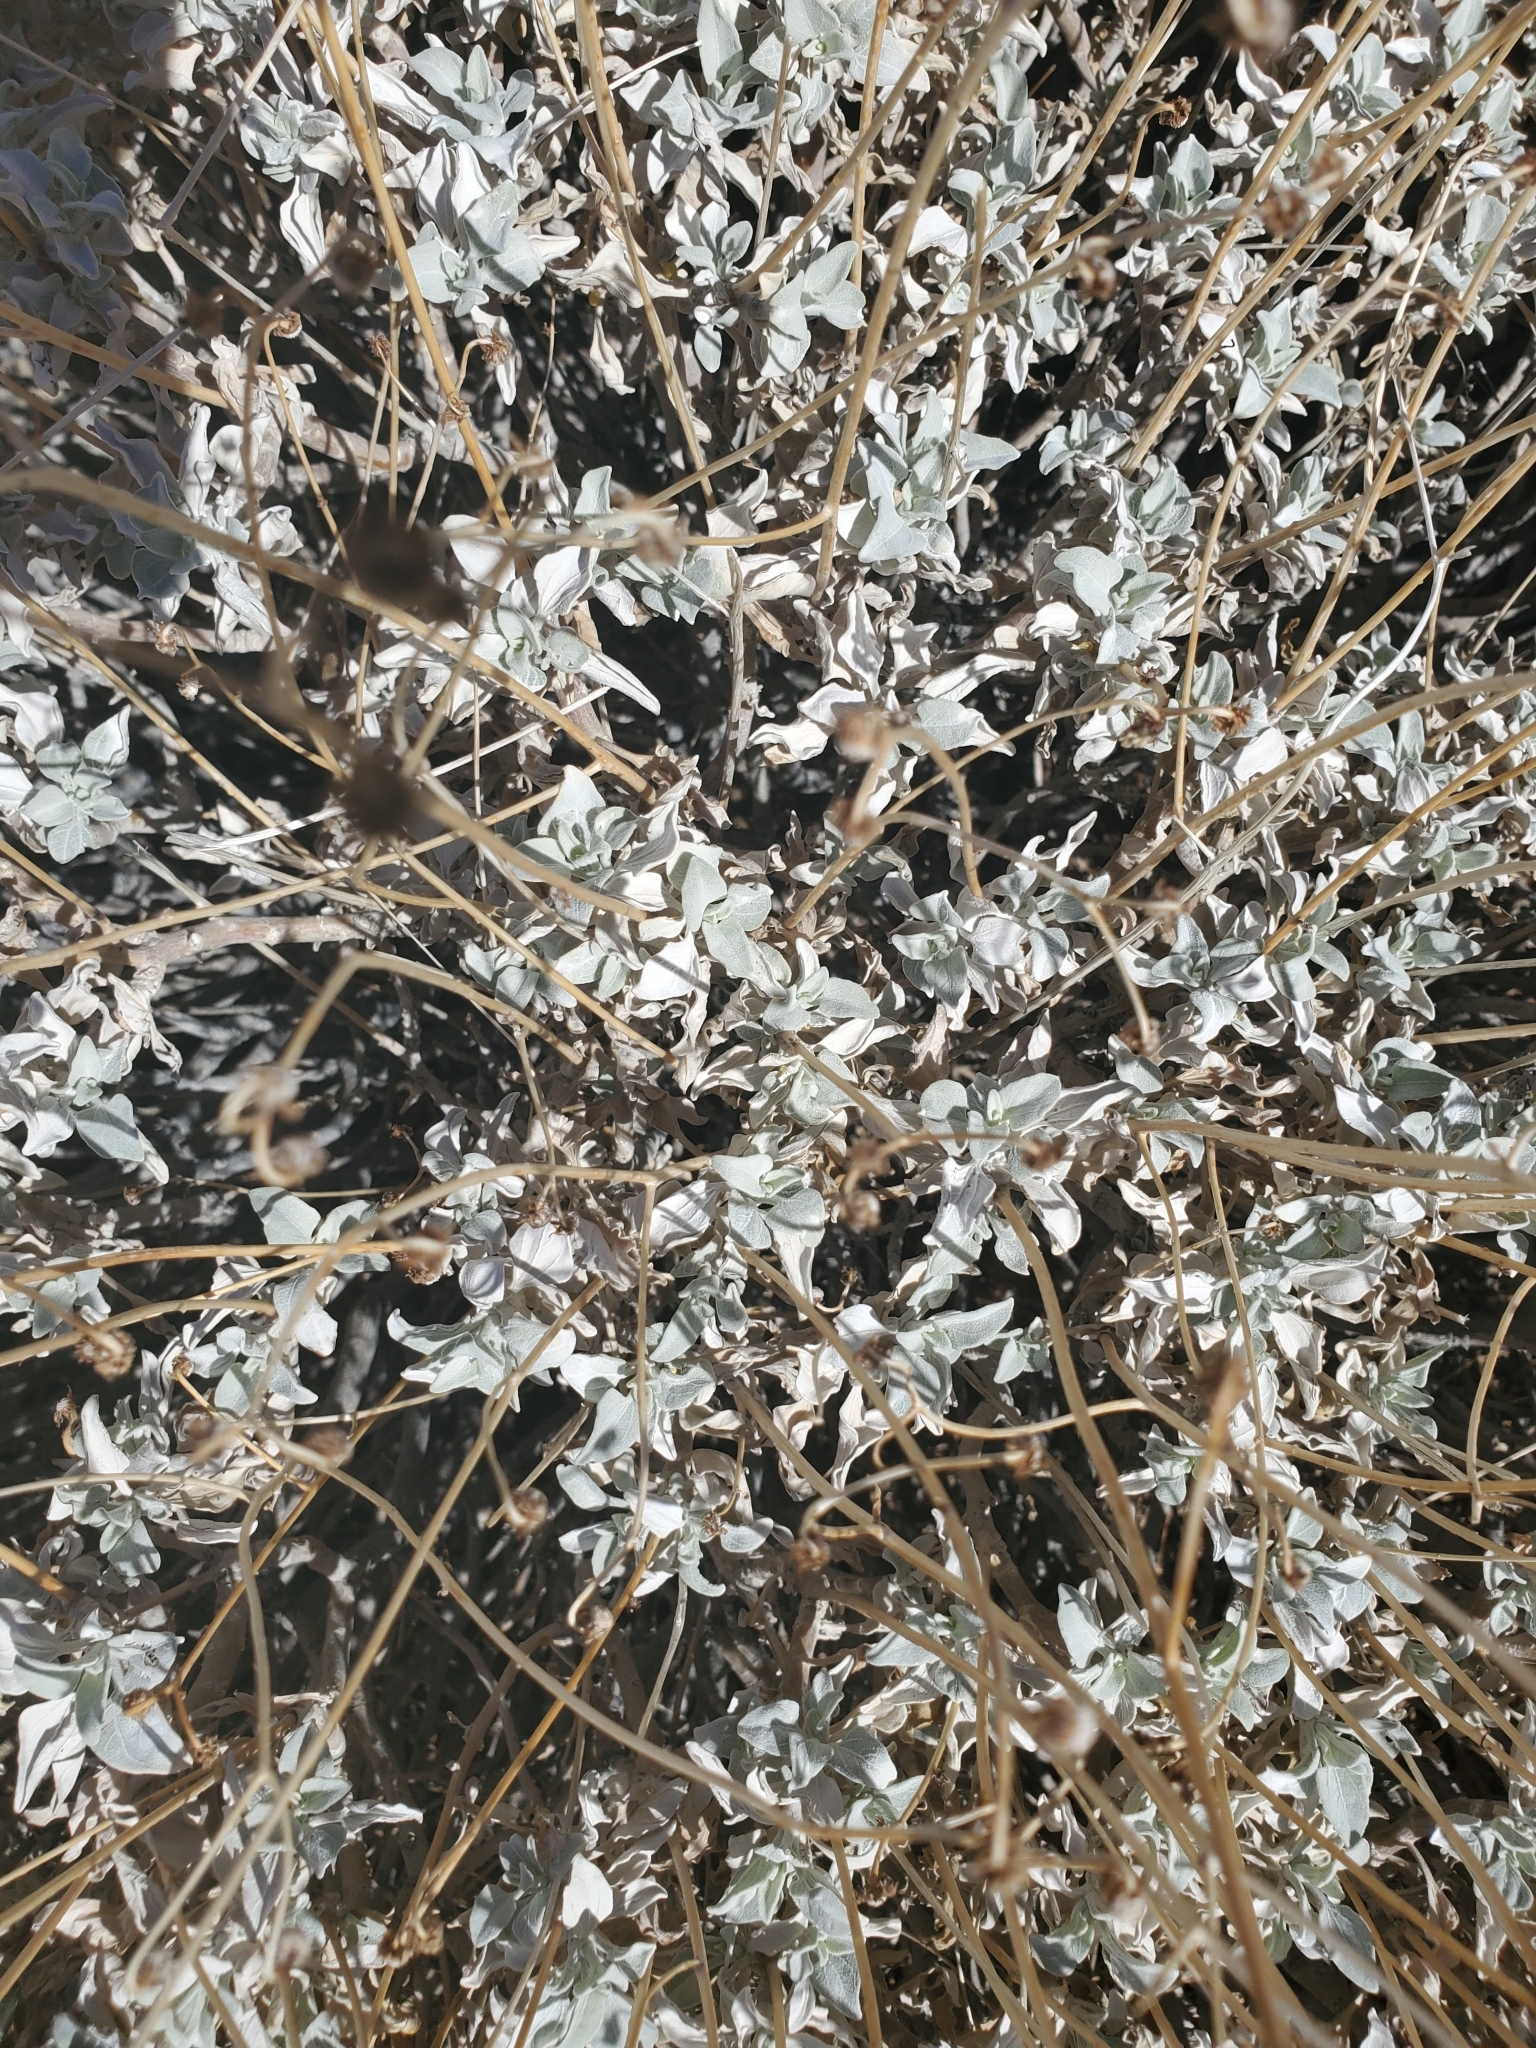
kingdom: Plantae
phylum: Tracheophyta
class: Magnoliopsida
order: Asterales
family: Asteraceae
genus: Encelia
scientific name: Encelia farinosa
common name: Brittlebush
